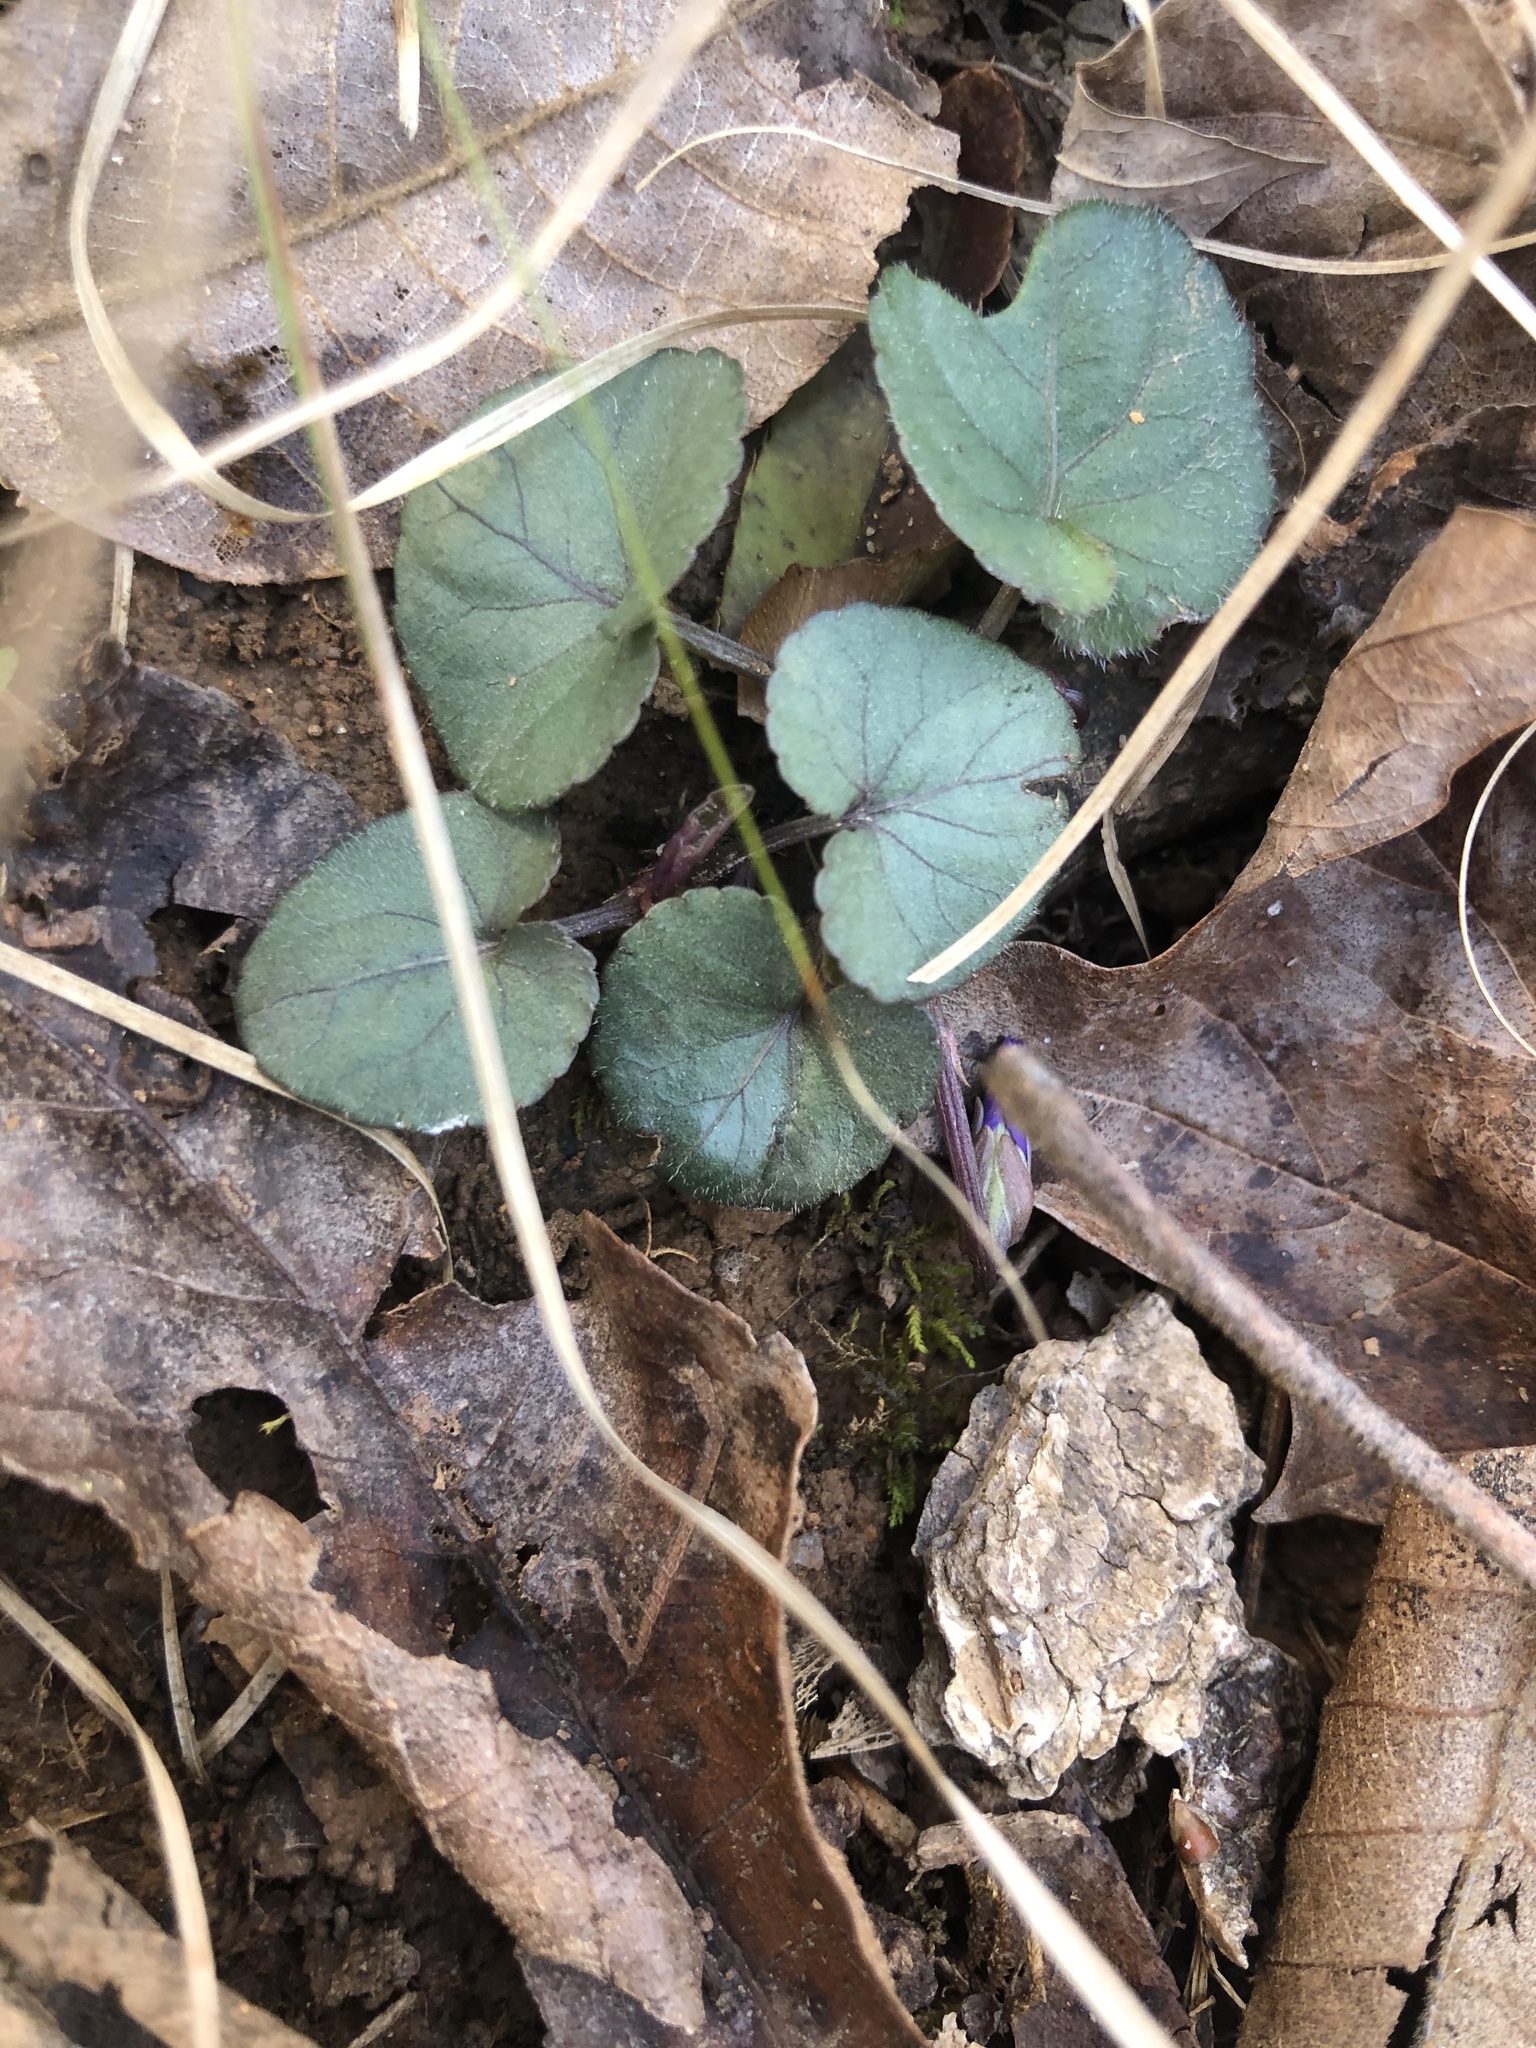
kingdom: Plantae
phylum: Tracheophyta
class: Magnoliopsida
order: Malpighiales
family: Violaceae
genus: Viola
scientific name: Viola hirsutula
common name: Southern wood violet
